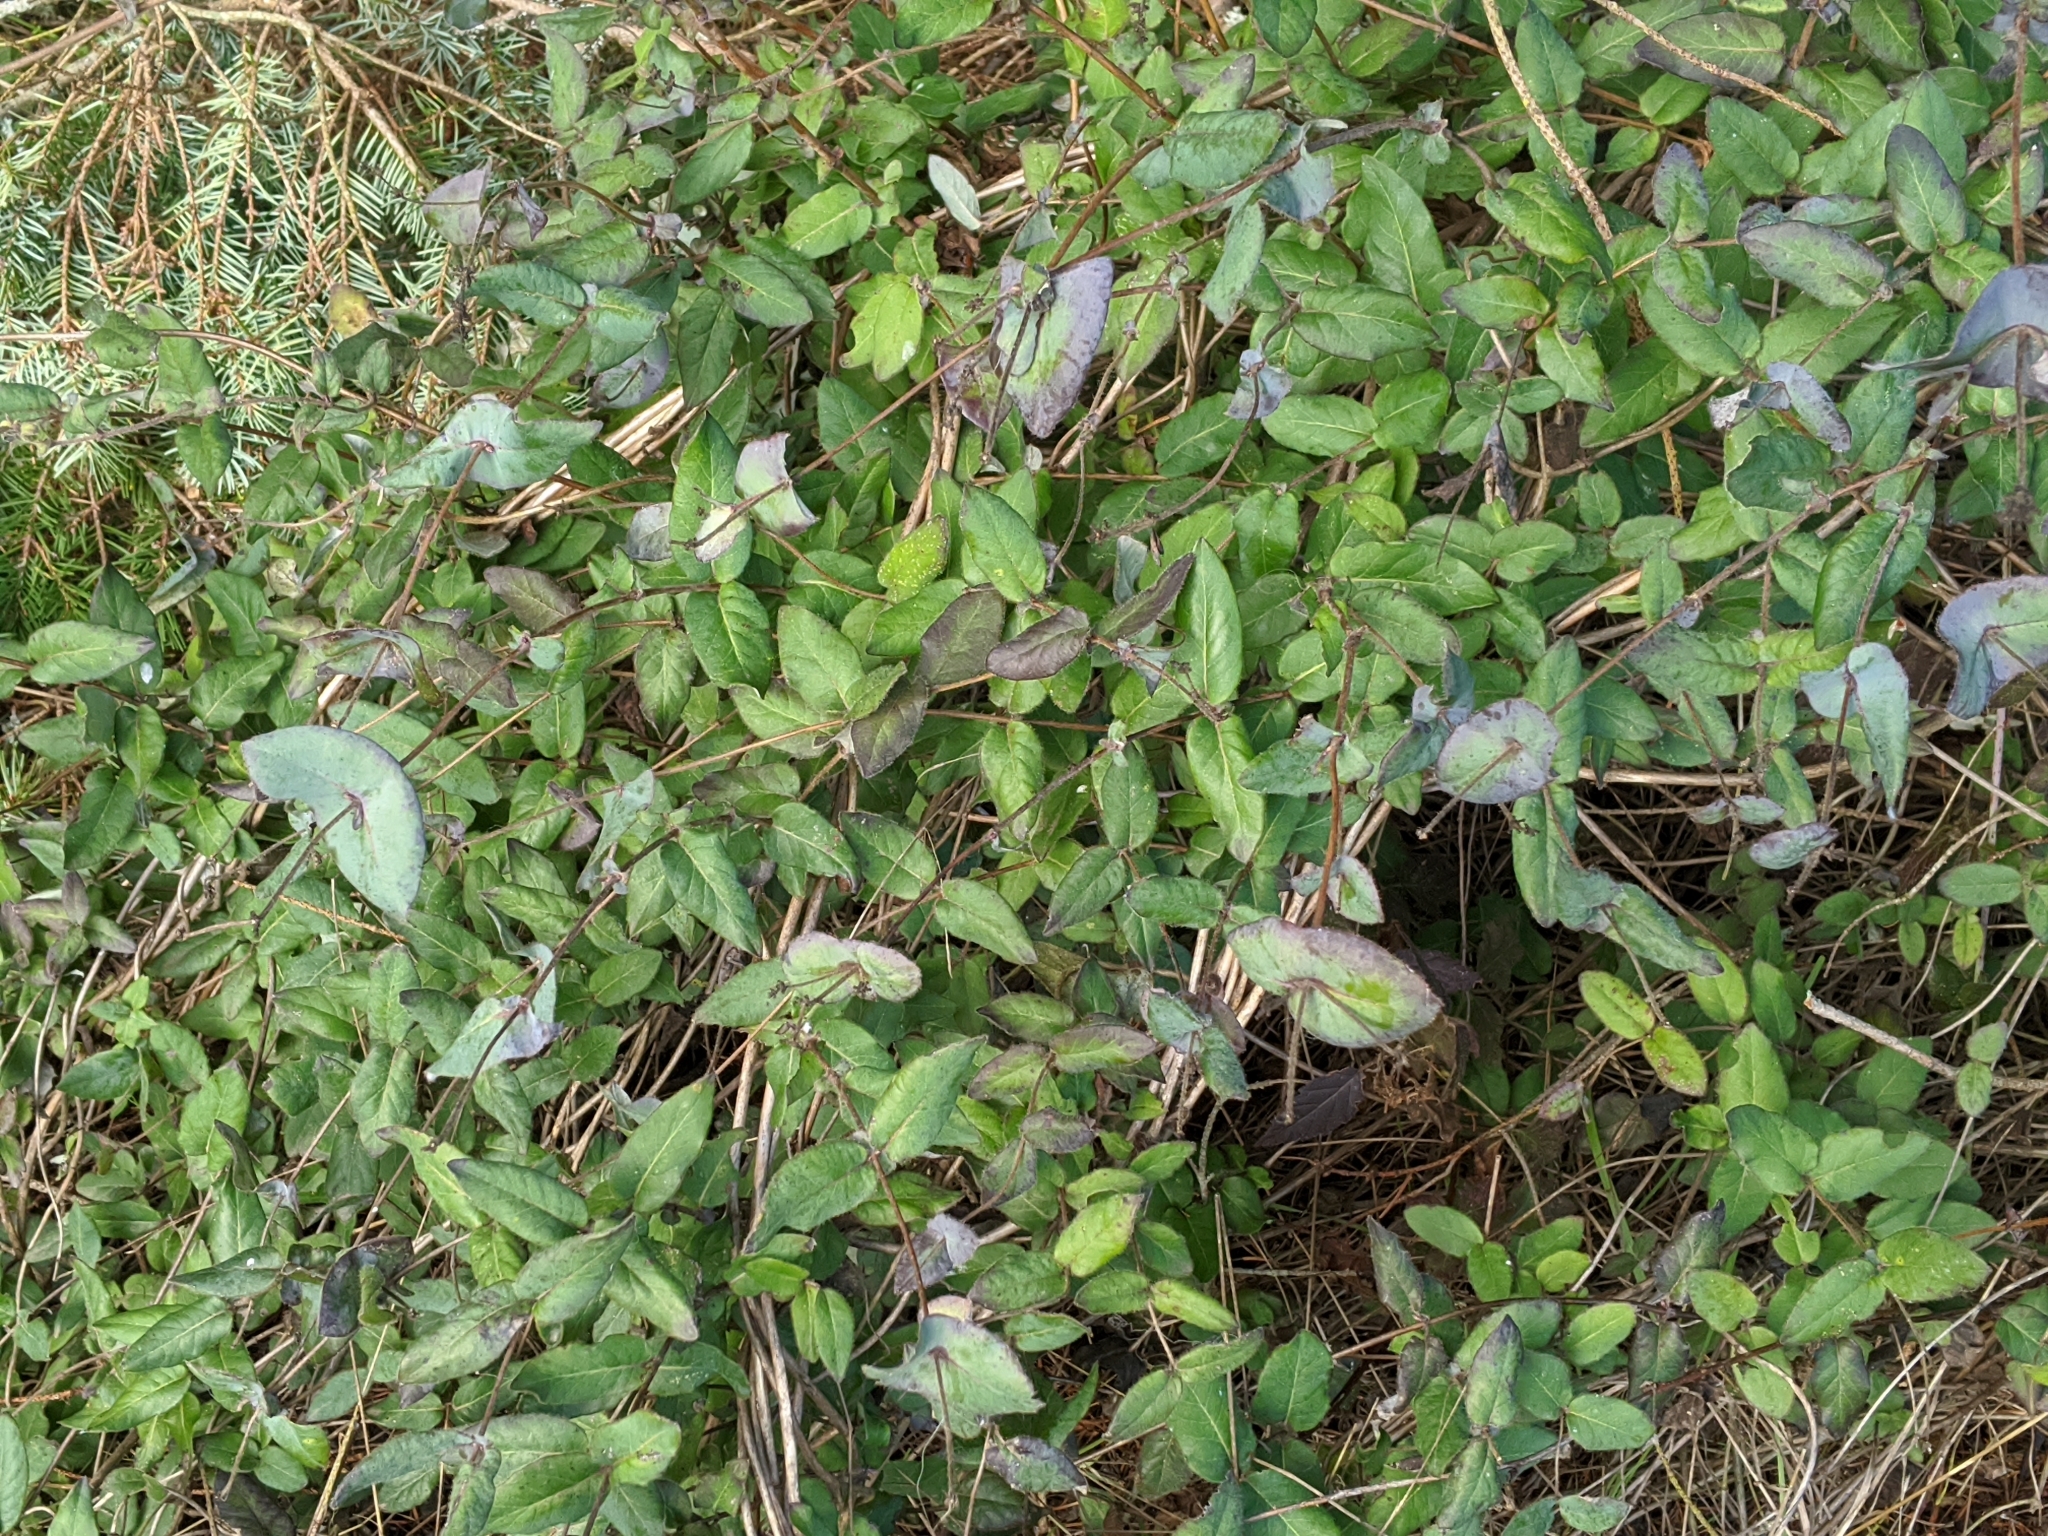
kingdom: Plantae
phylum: Tracheophyta
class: Magnoliopsida
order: Dipsacales
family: Caprifoliaceae
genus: Lonicera
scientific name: Lonicera hispidula
